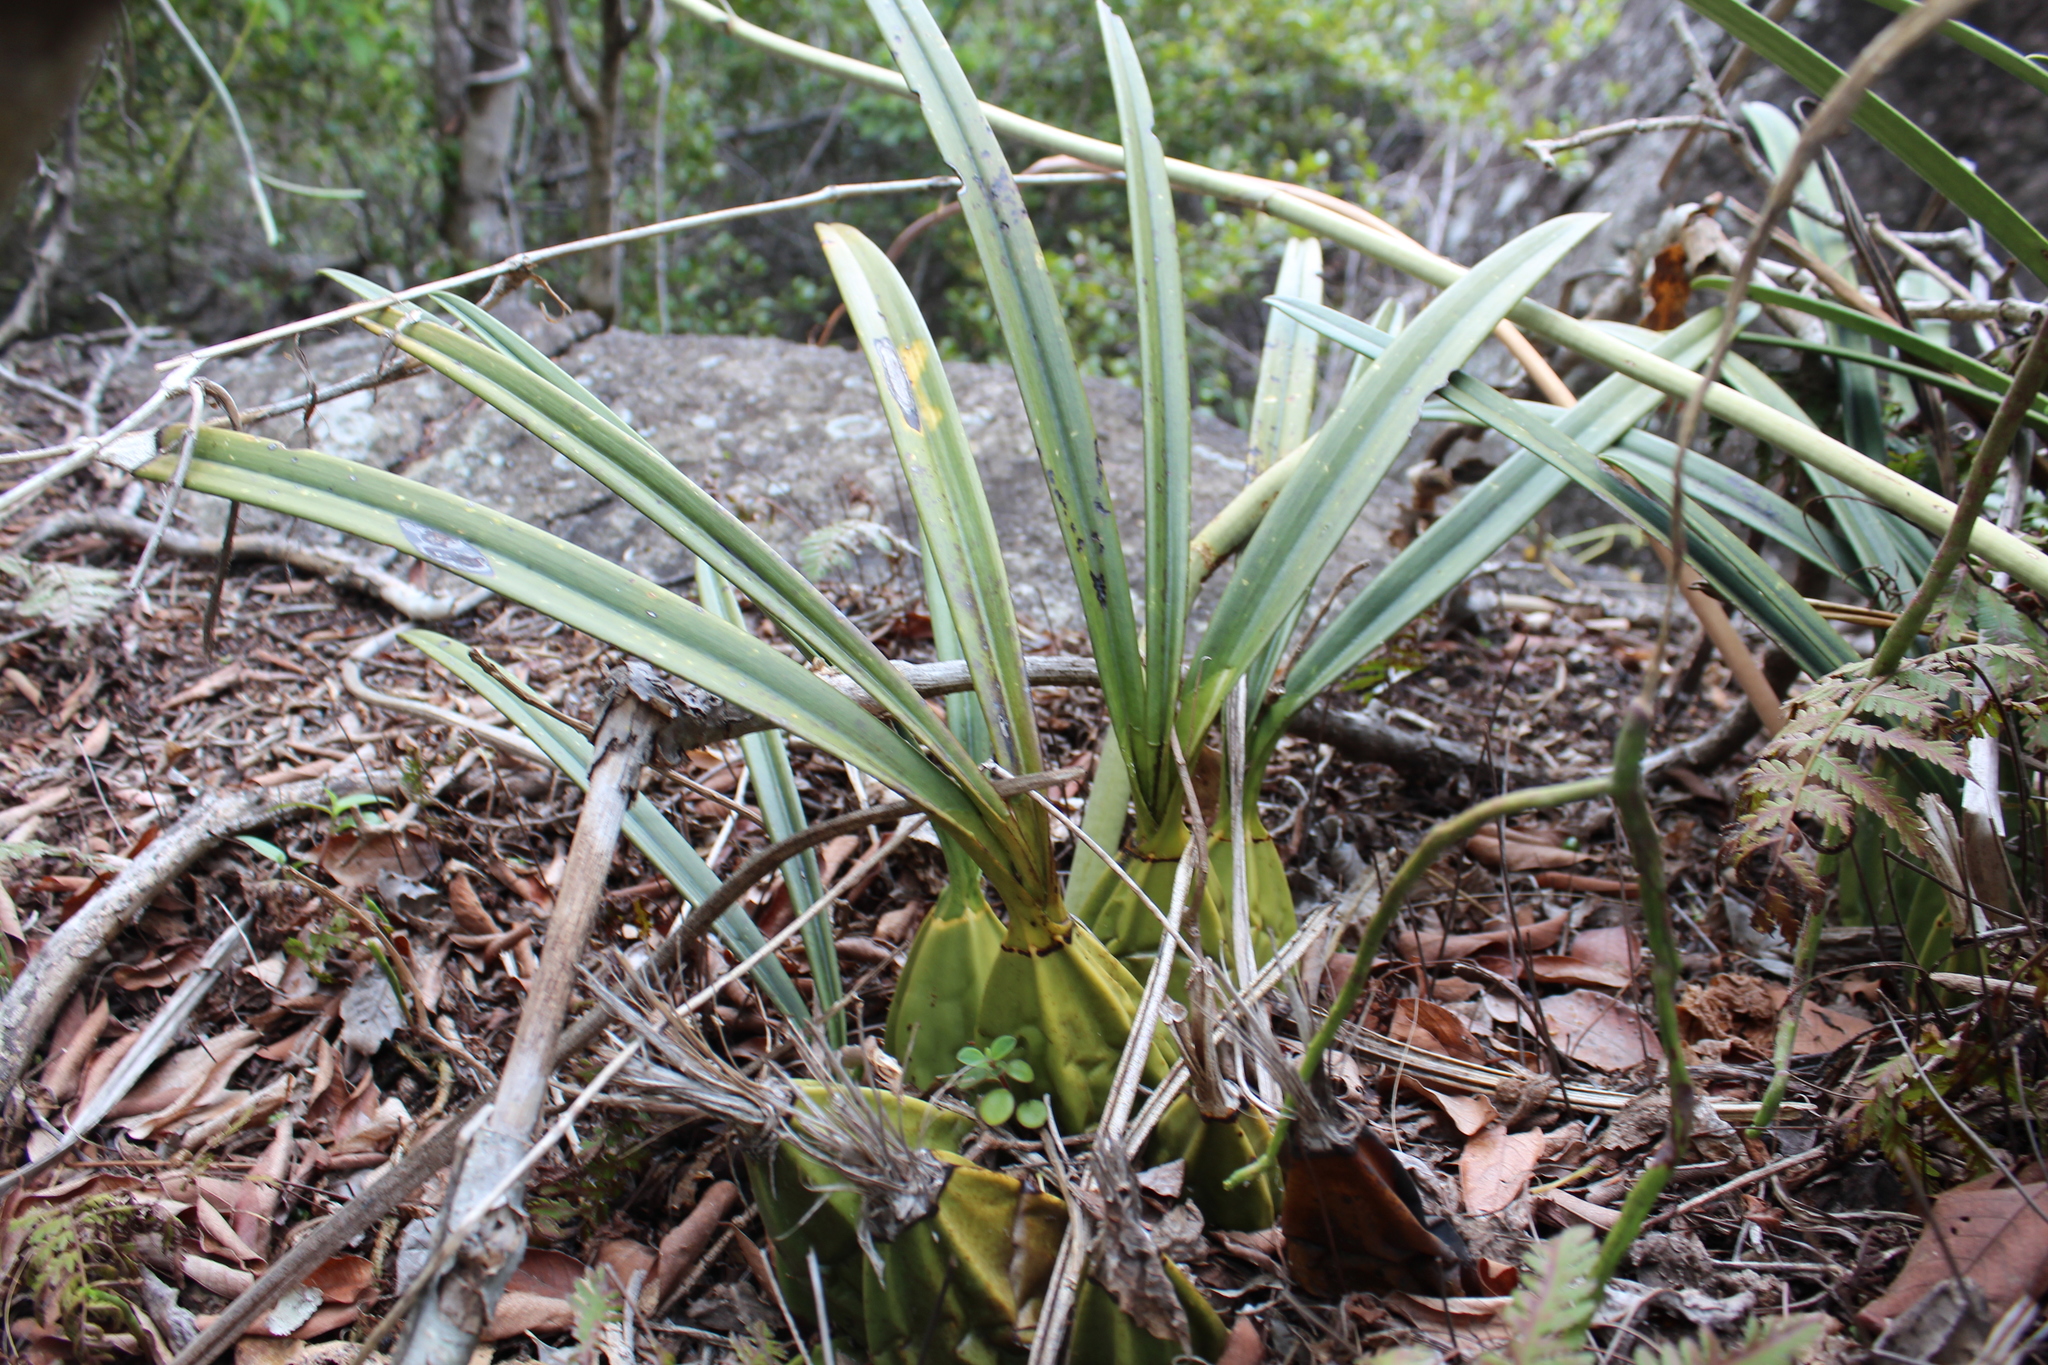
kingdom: Plantae
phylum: Tracheophyta
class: Liliopsida
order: Asparagales
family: Orchidaceae
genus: Eulophia
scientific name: Eulophia calcarata
